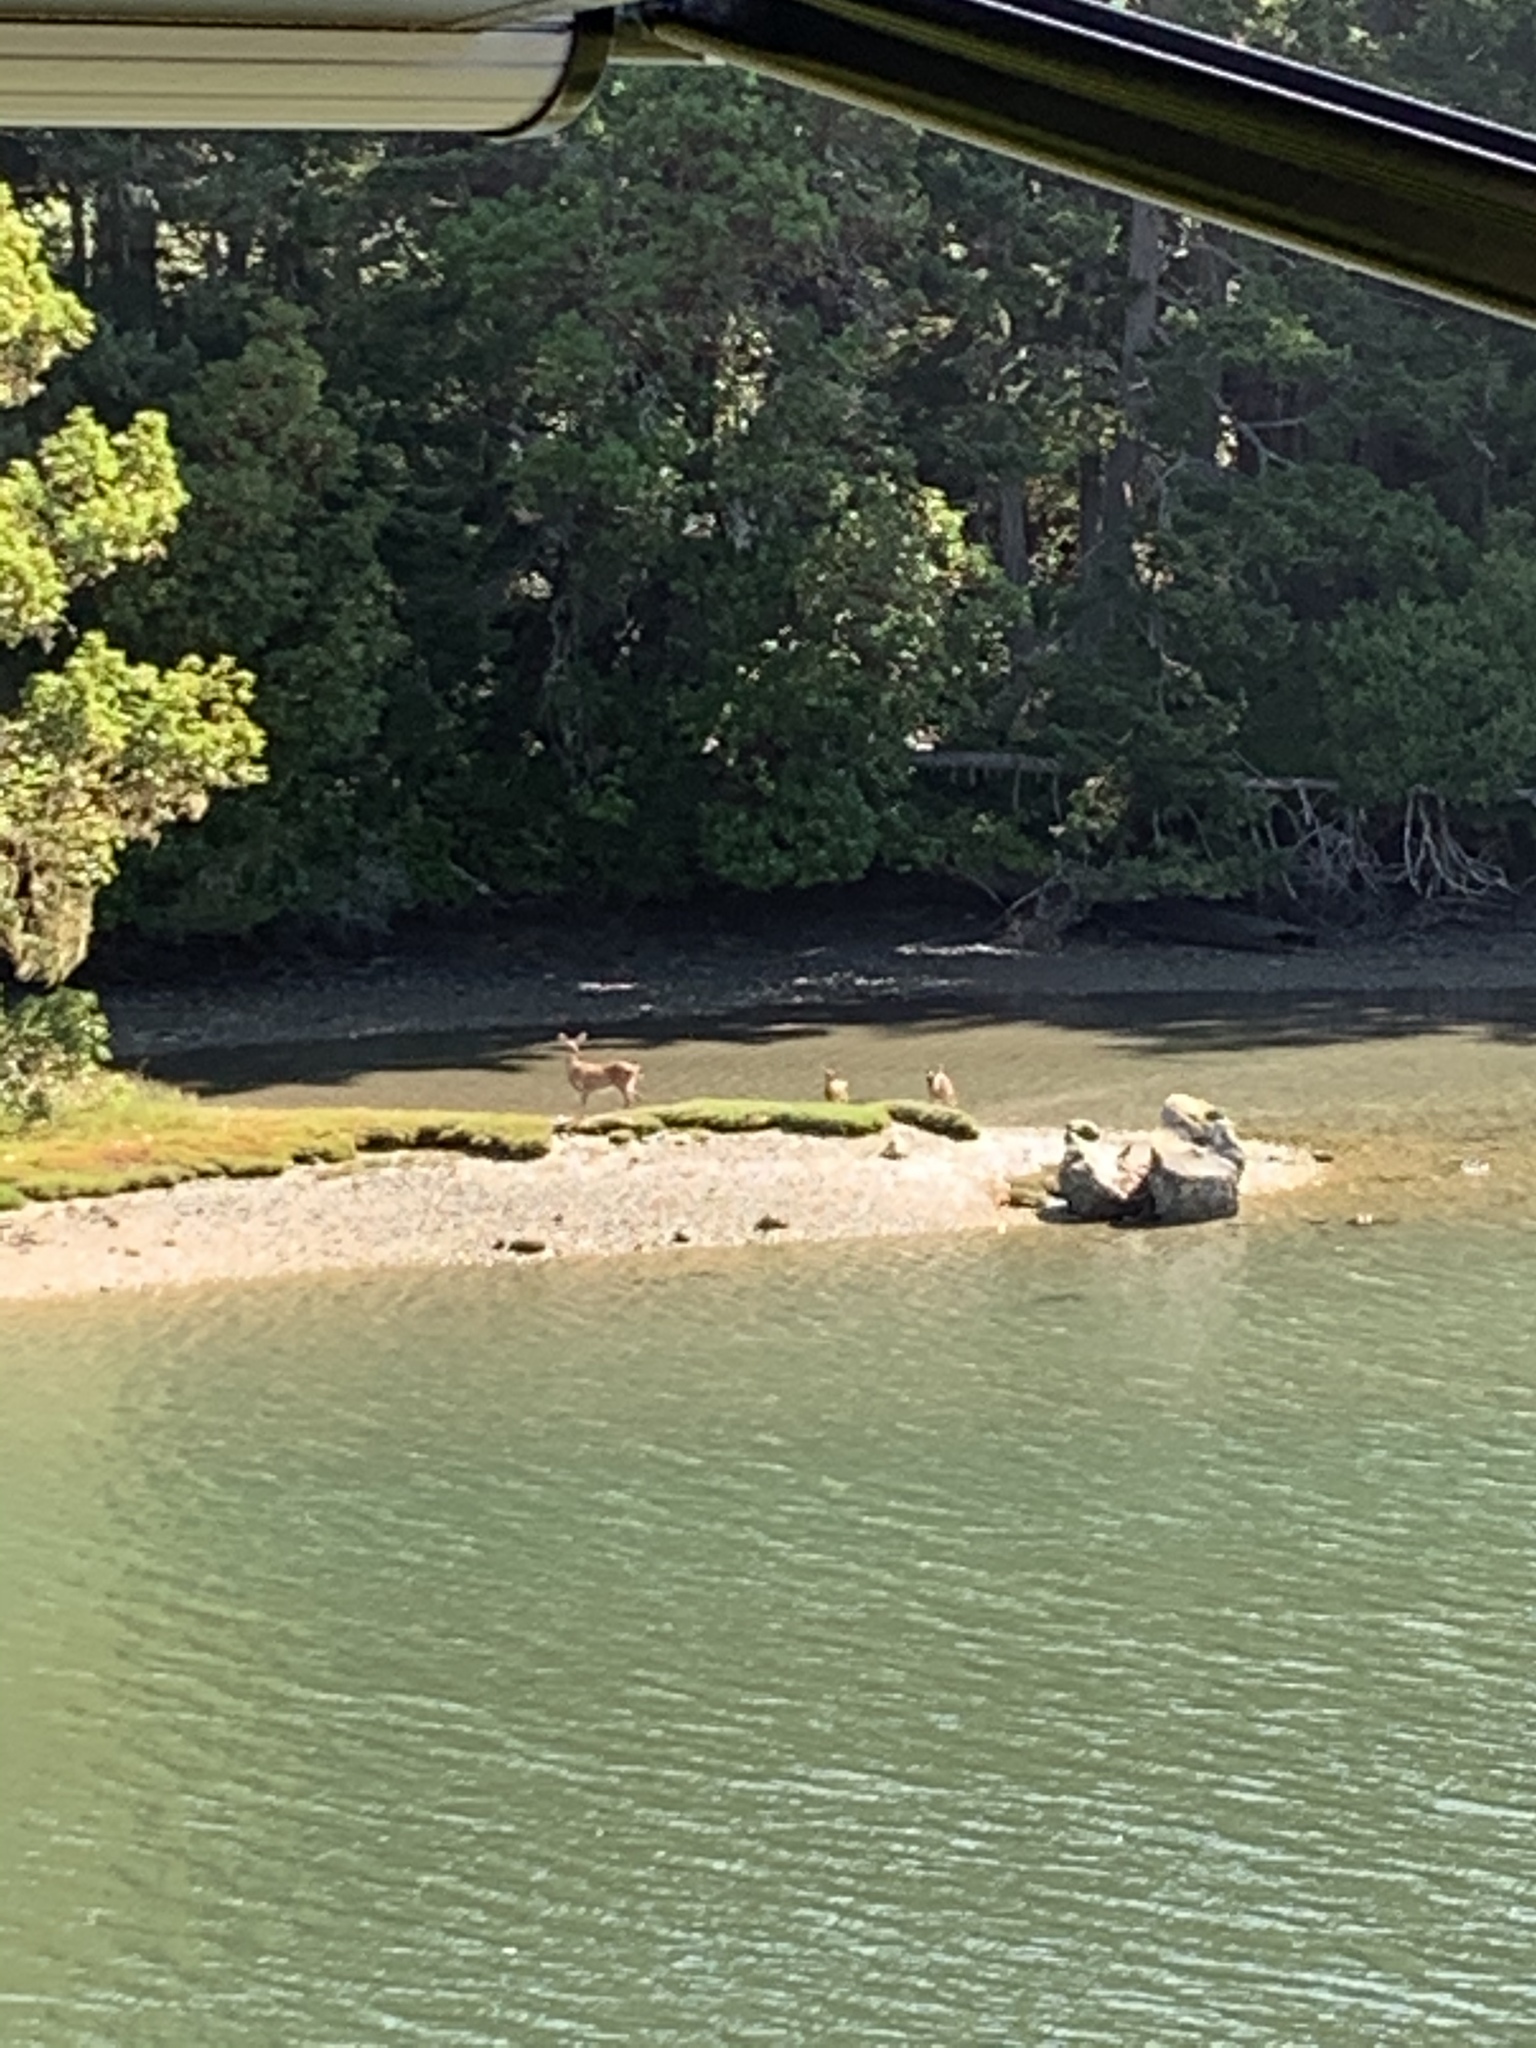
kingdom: Animalia
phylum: Chordata
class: Mammalia
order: Artiodactyla
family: Cervidae
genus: Odocoileus
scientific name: Odocoileus hemionus
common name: Mule deer
